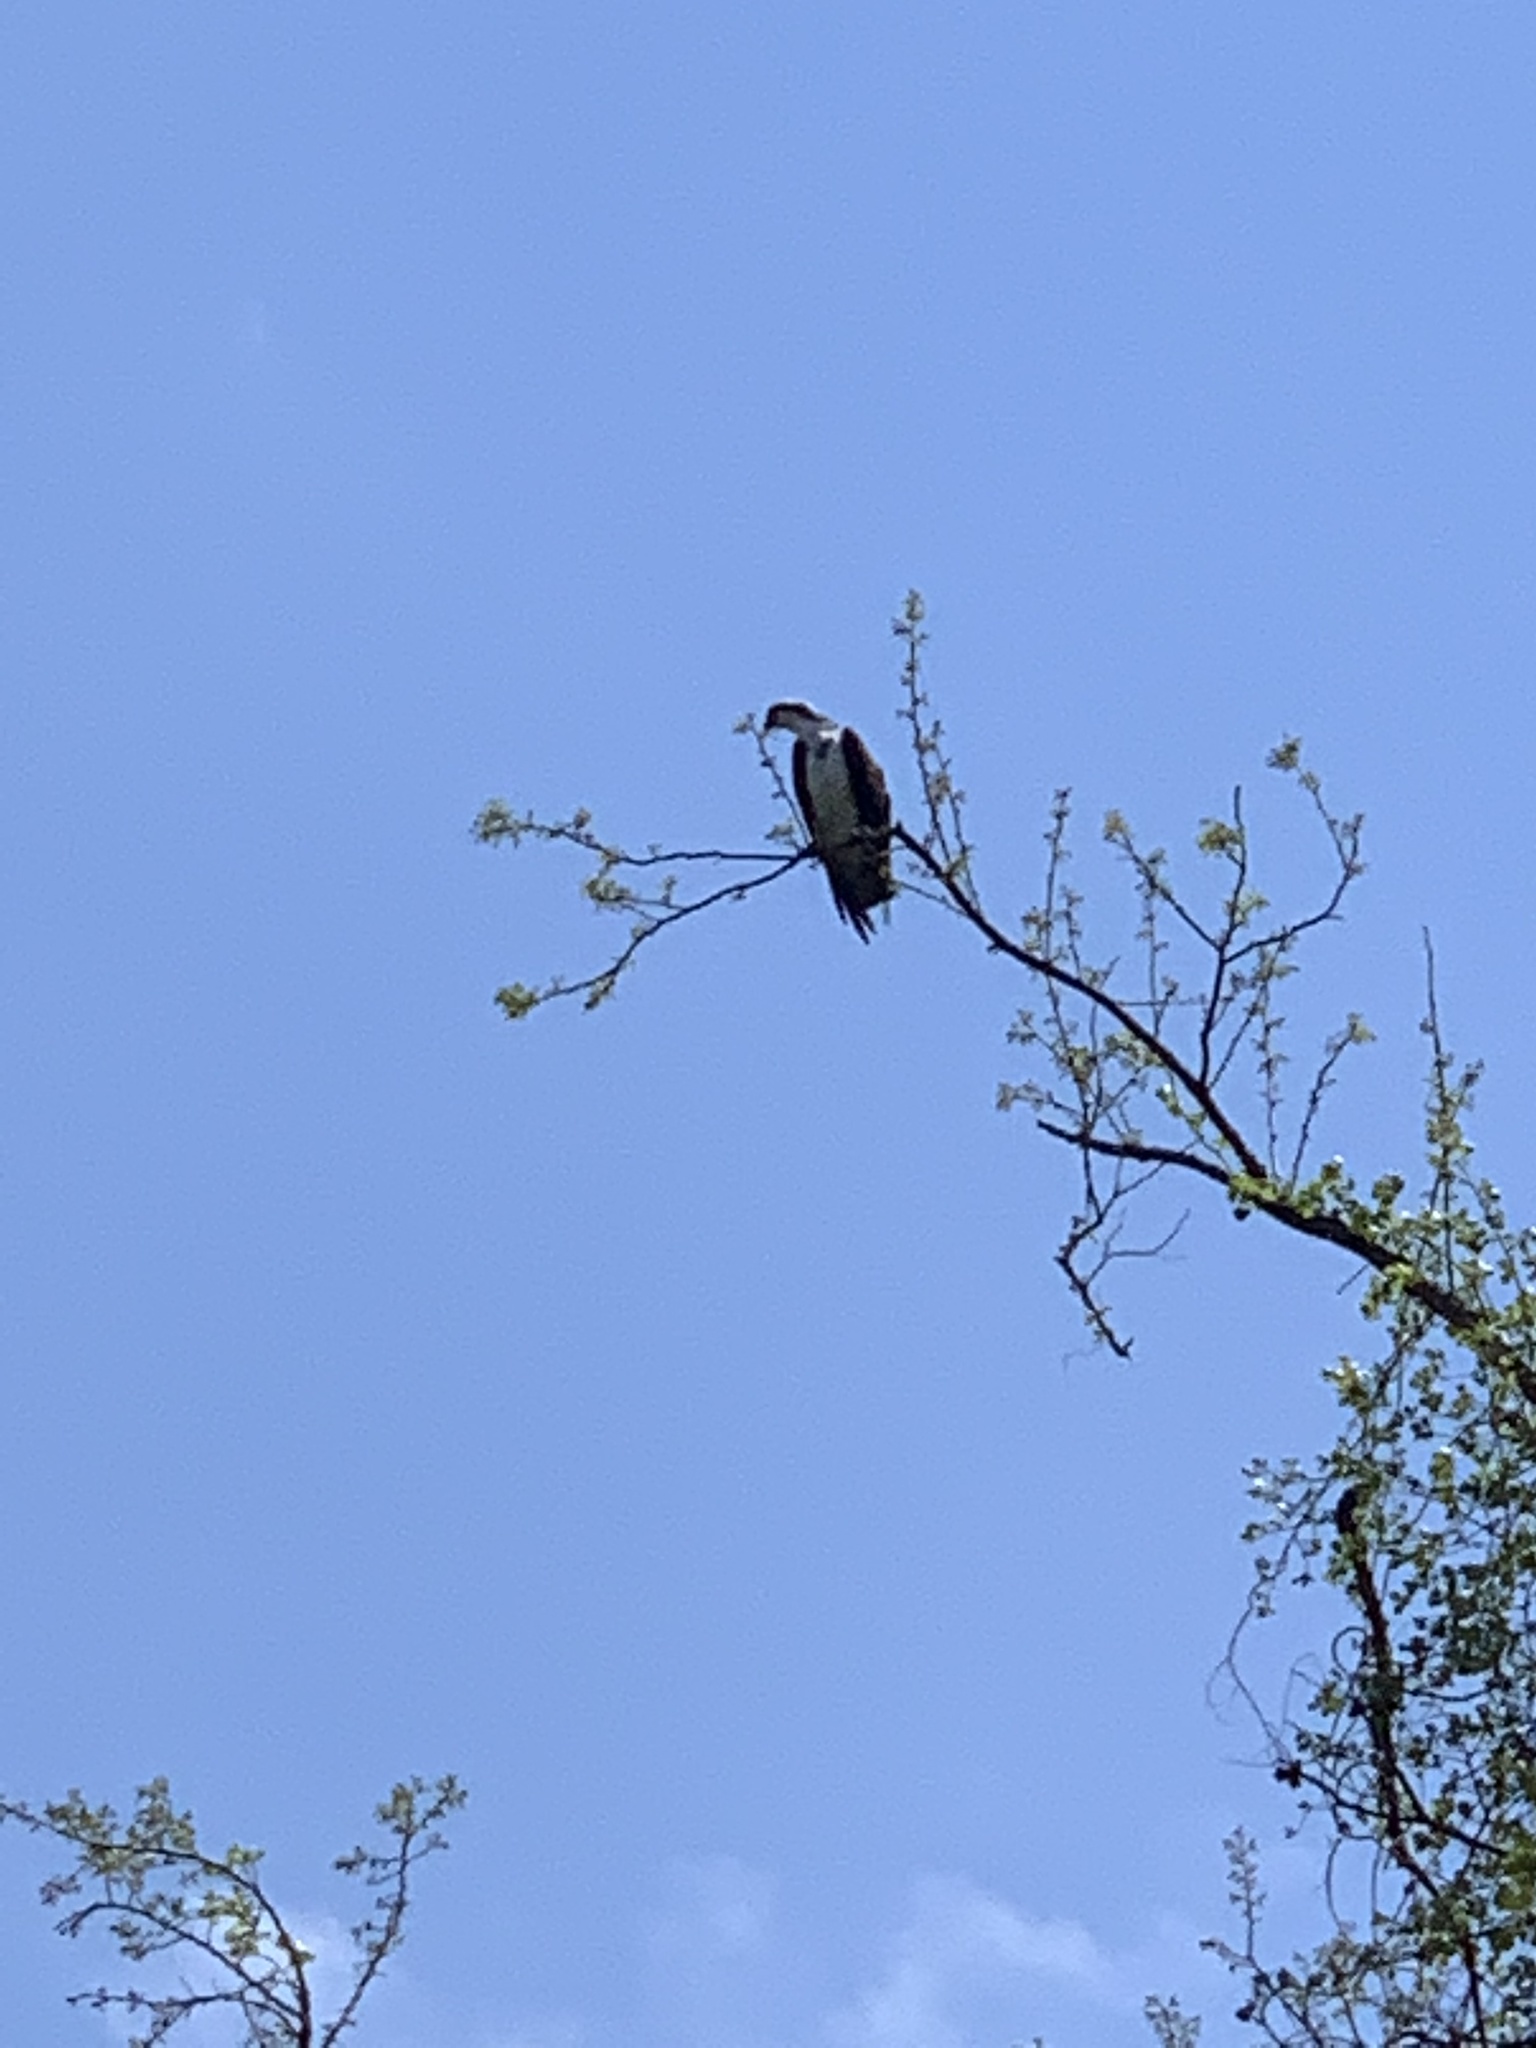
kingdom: Animalia
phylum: Chordata
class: Aves
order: Accipitriformes
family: Pandionidae
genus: Pandion
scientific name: Pandion haliaetus
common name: Osprey
